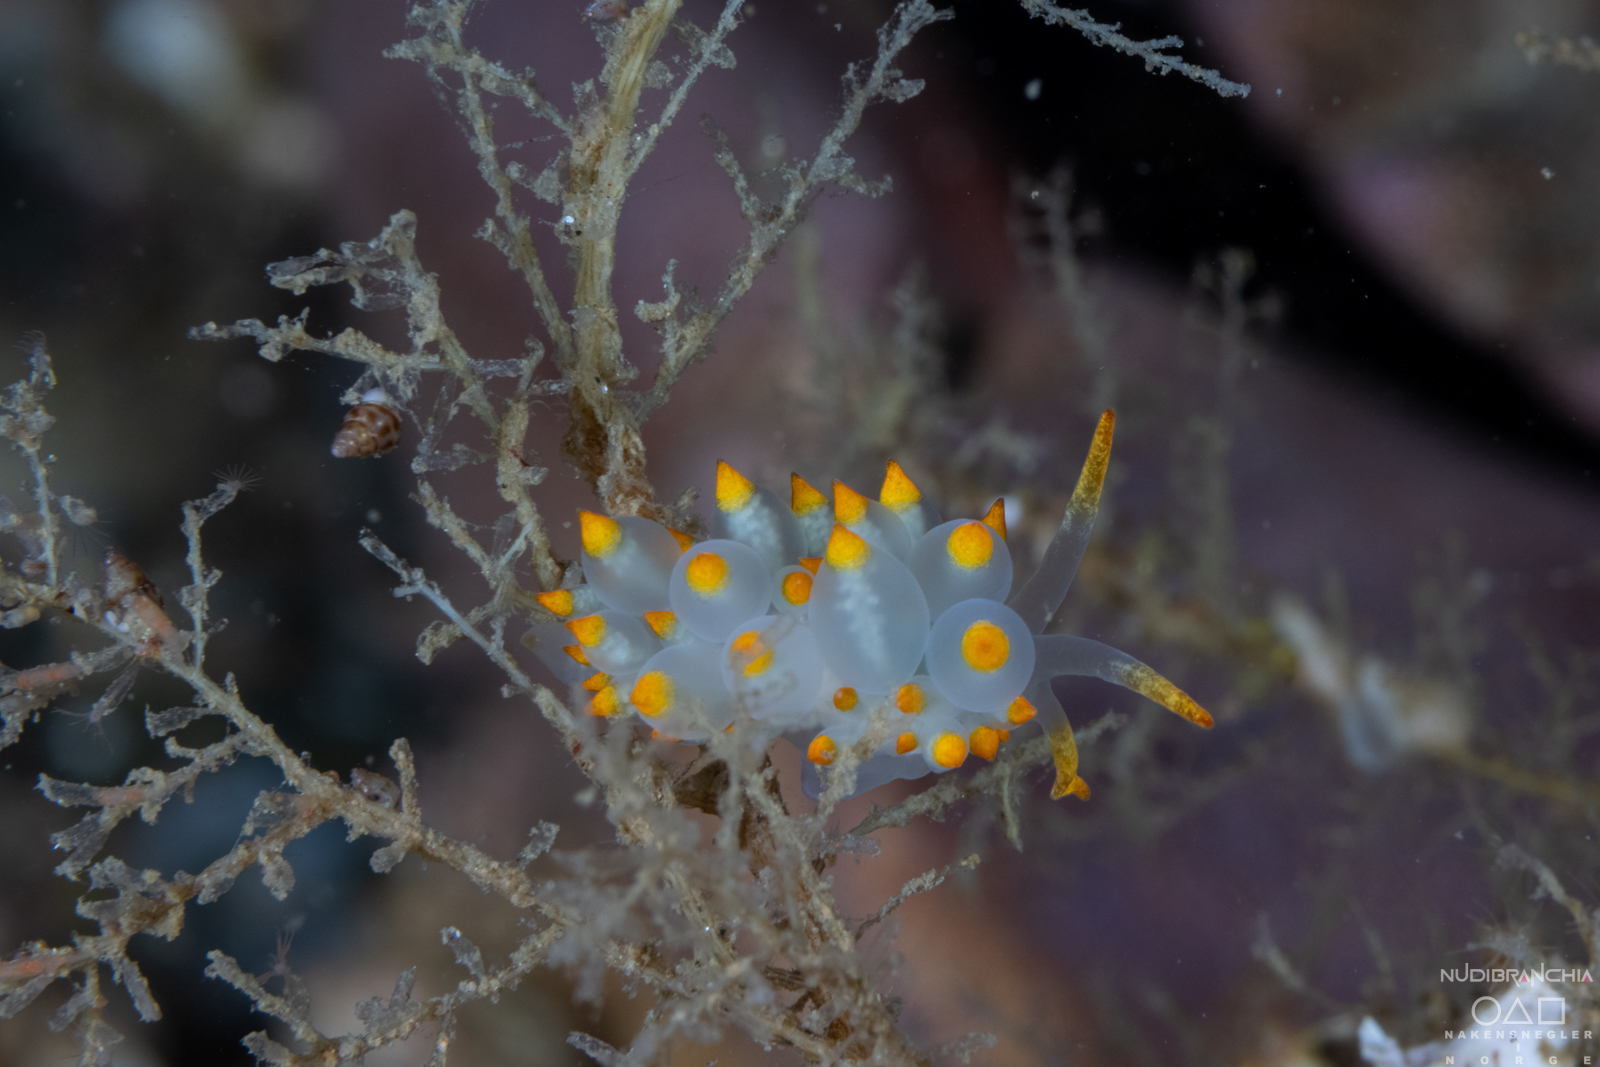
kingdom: Animalia
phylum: Mollusca
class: Gastropoda
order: Nudibranchia
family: Eubranchidae
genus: Amphorina
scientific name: Amphorina farrani
